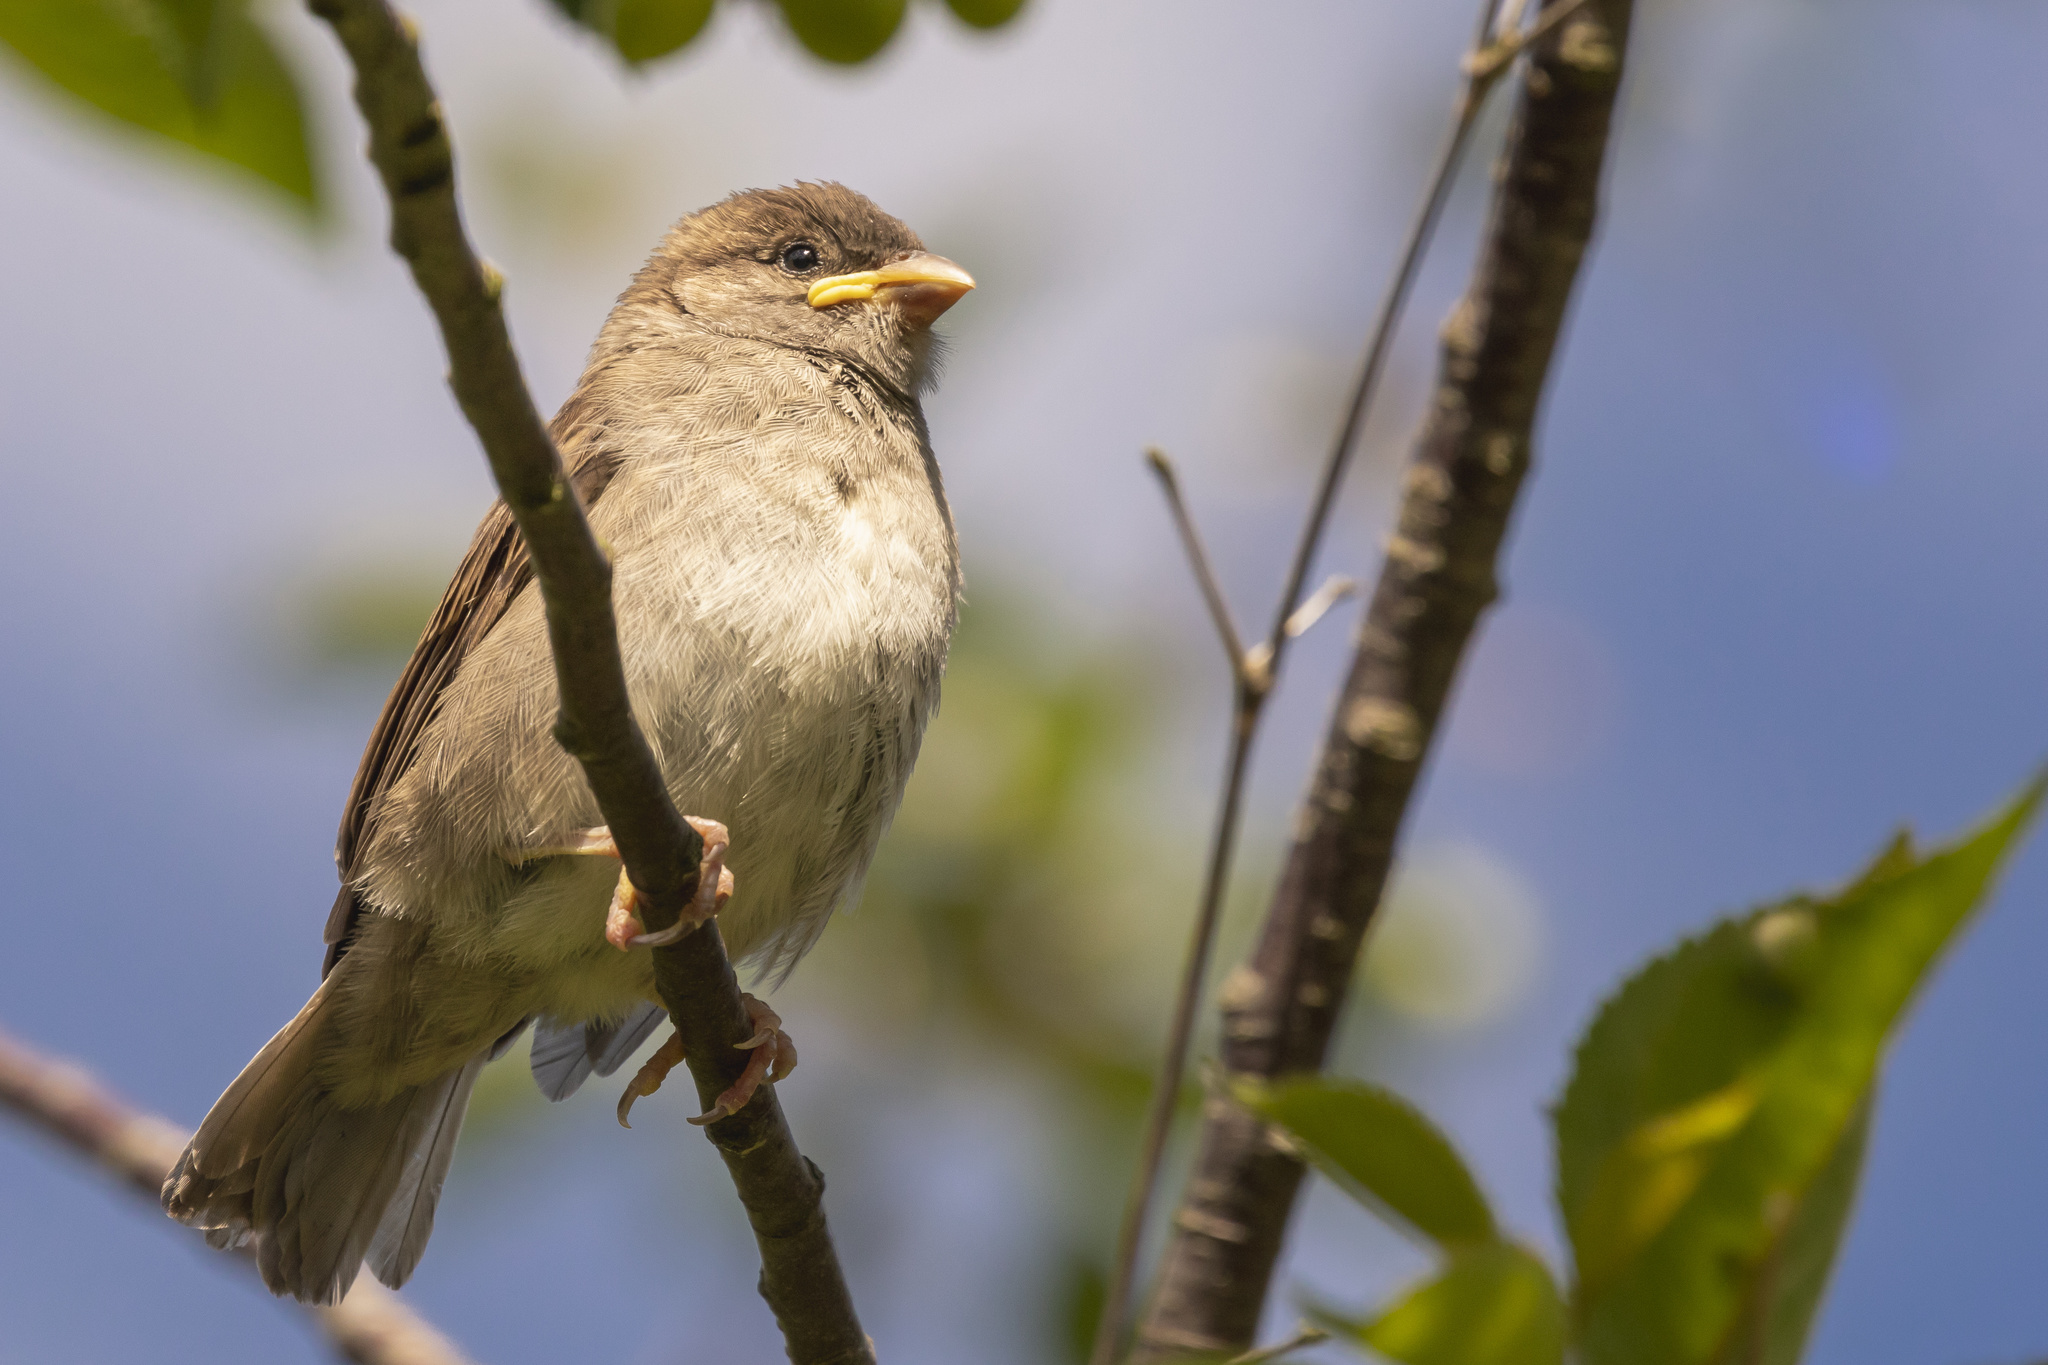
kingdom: Animalia
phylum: Chordata
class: Aves
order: Passeriformes
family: Passeridae
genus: Passer
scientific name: Passer domesticus
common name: House sparrow
